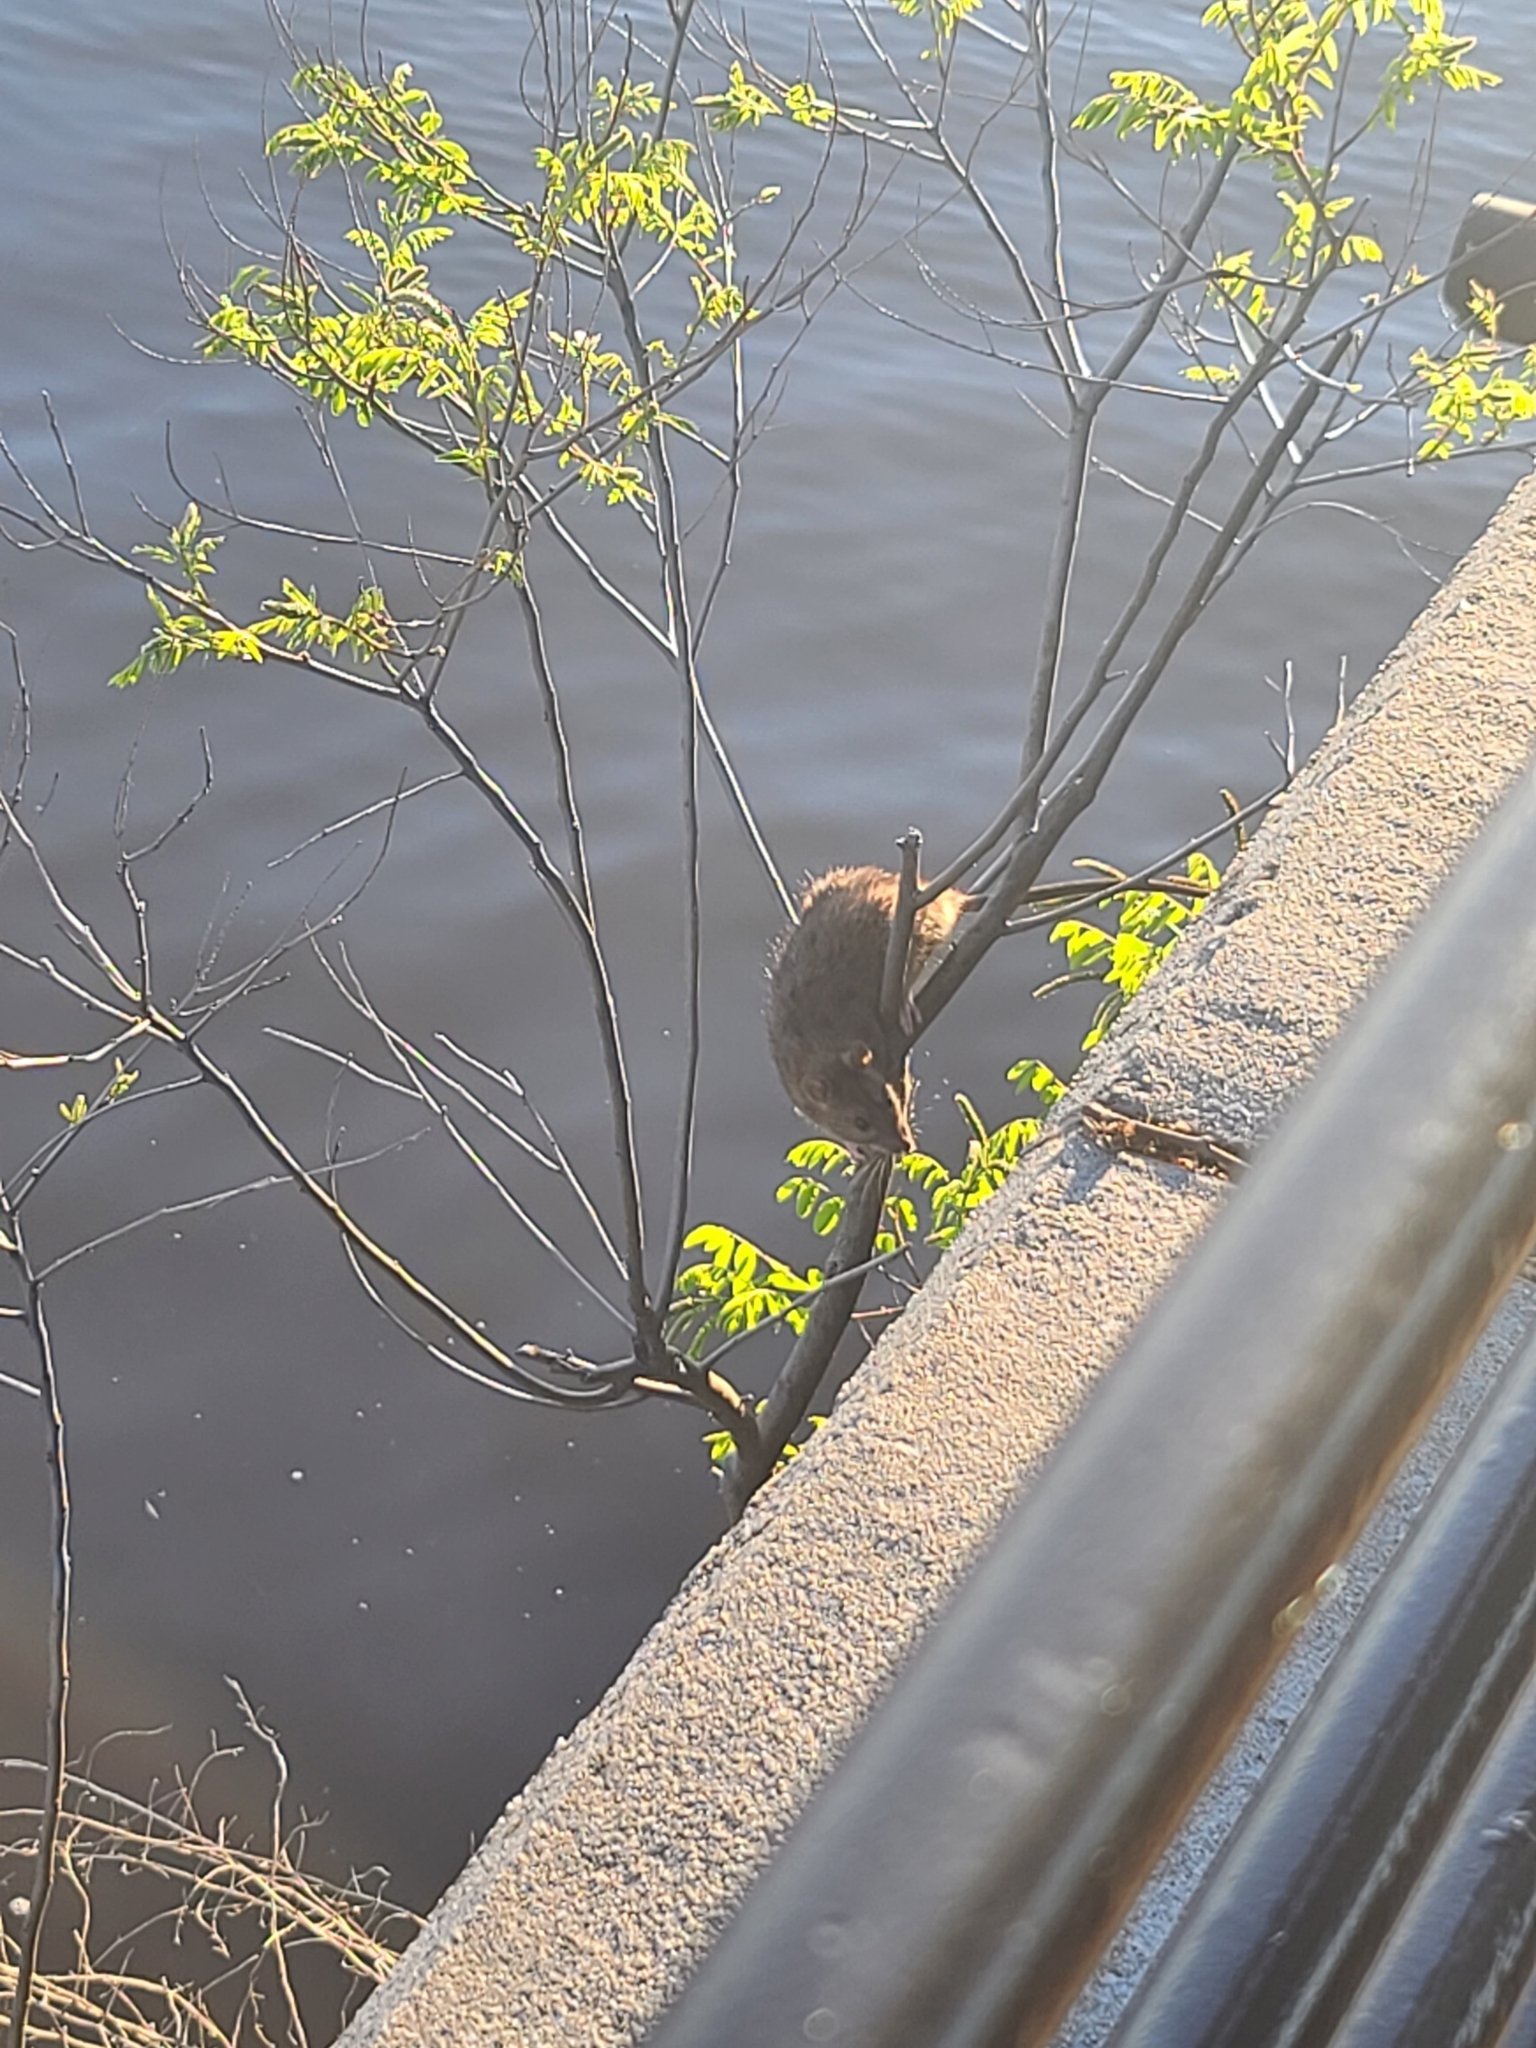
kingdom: Animalia
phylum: Chordata
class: Mammalia
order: Rodentia
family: Muridae
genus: Rattus
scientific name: Rattus norvegicus
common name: Brown rat
